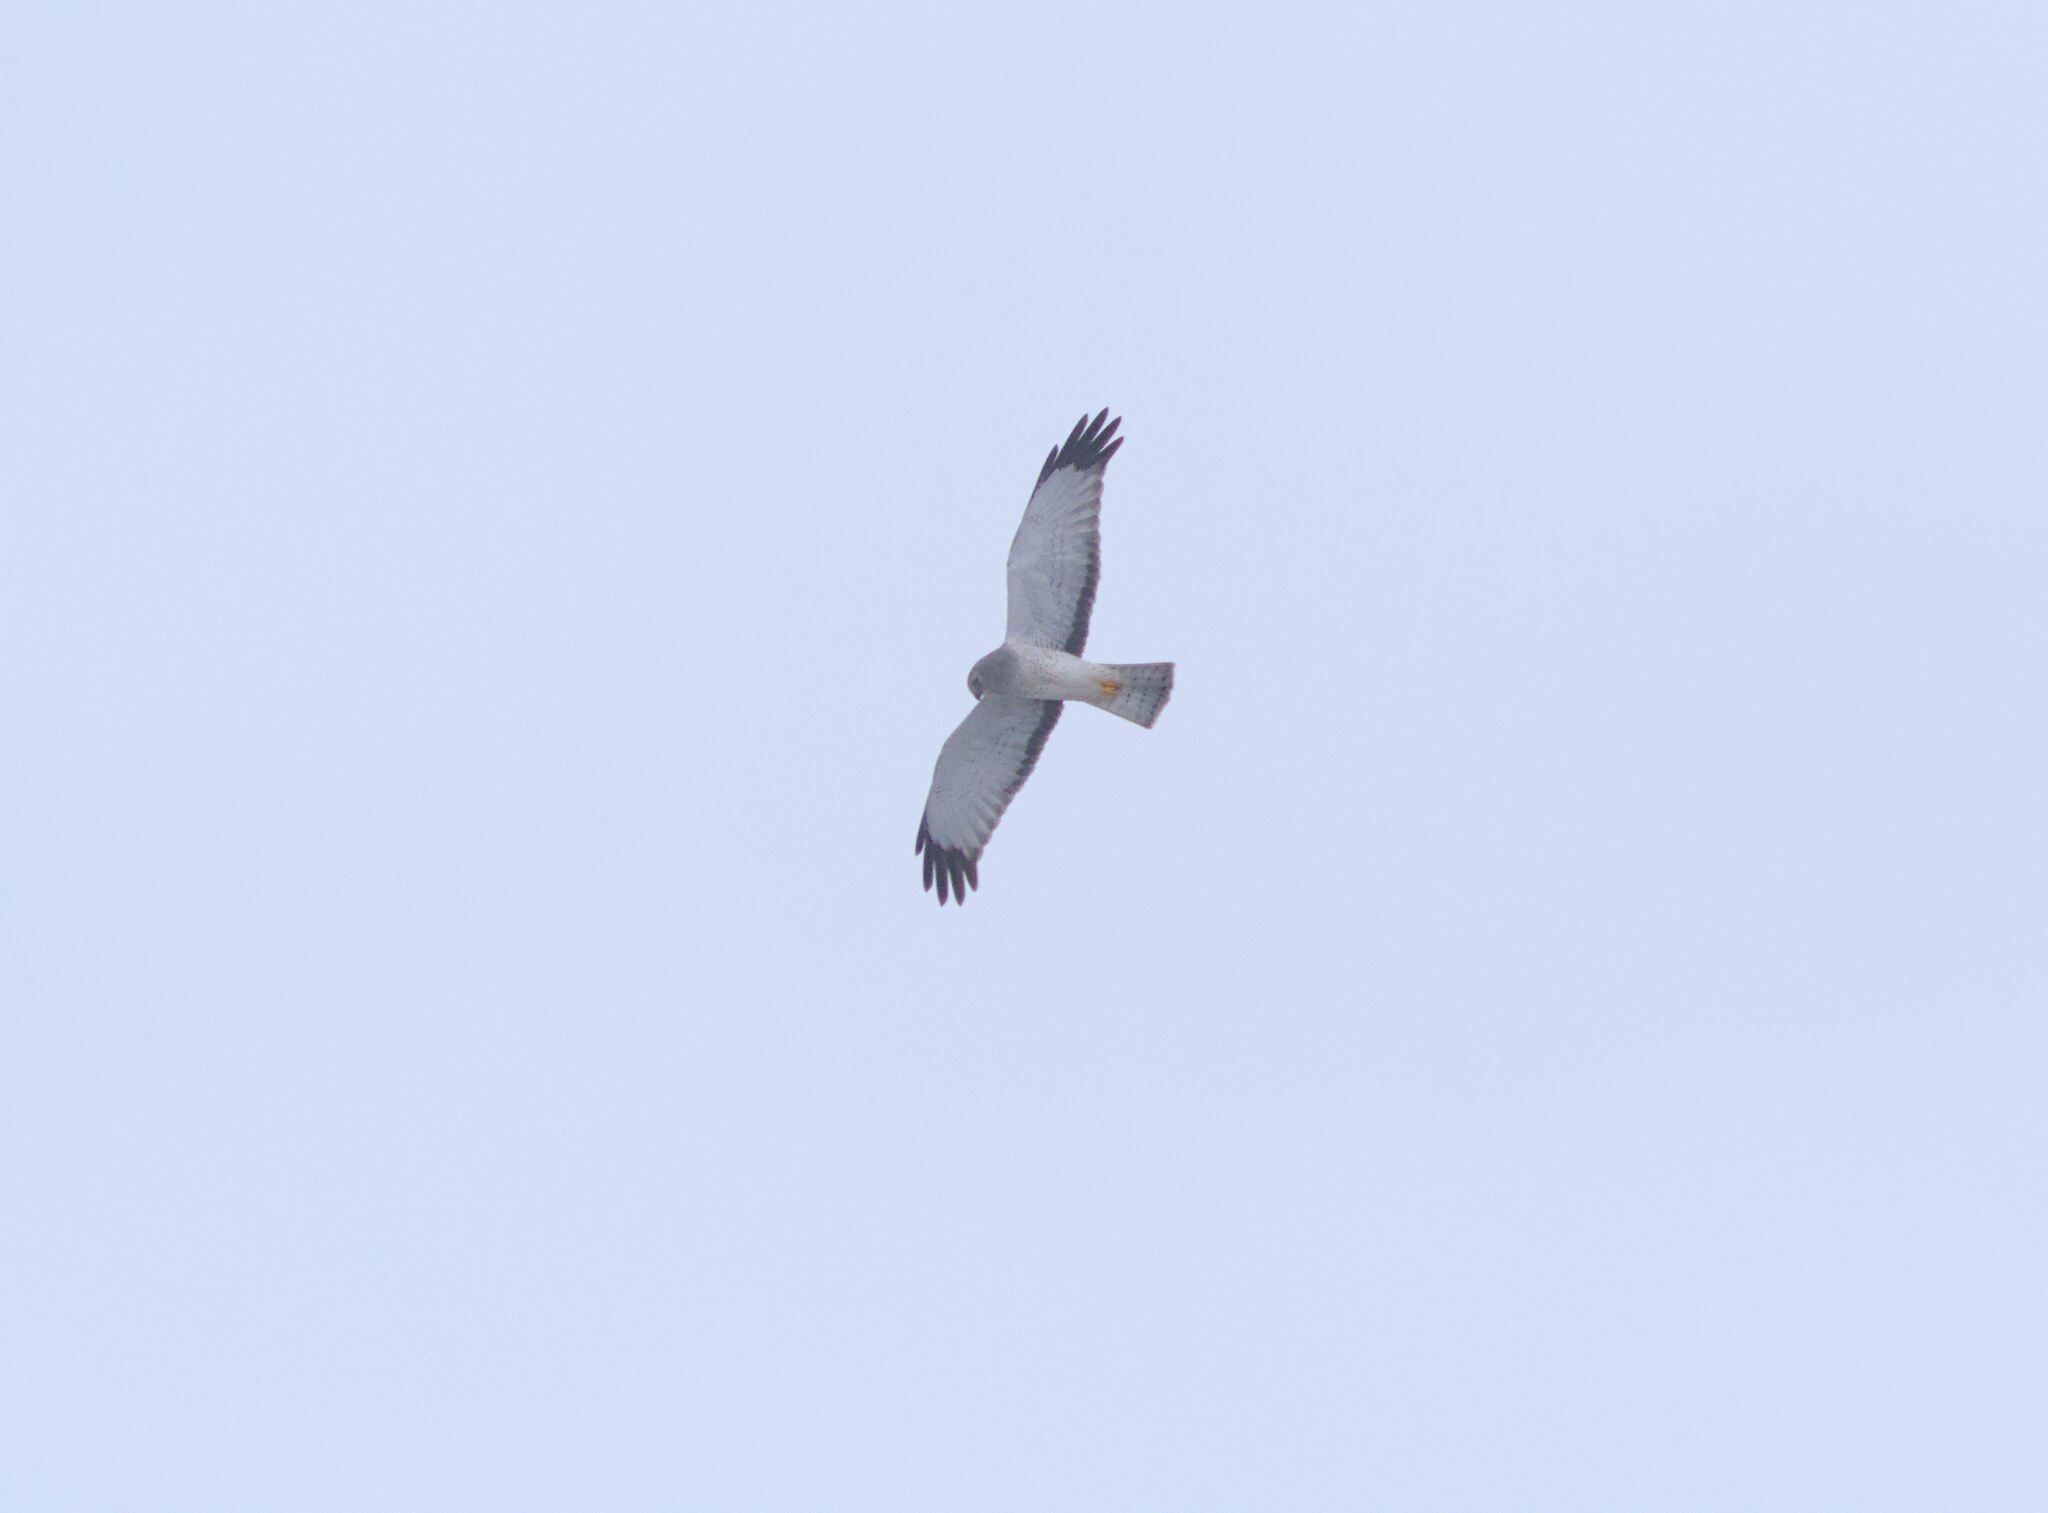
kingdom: Animalia
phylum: Chordata
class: Aves
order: Accipitriformes
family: Accipitridae
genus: Circus
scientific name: Circus cyaneus
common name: Hen harrier
